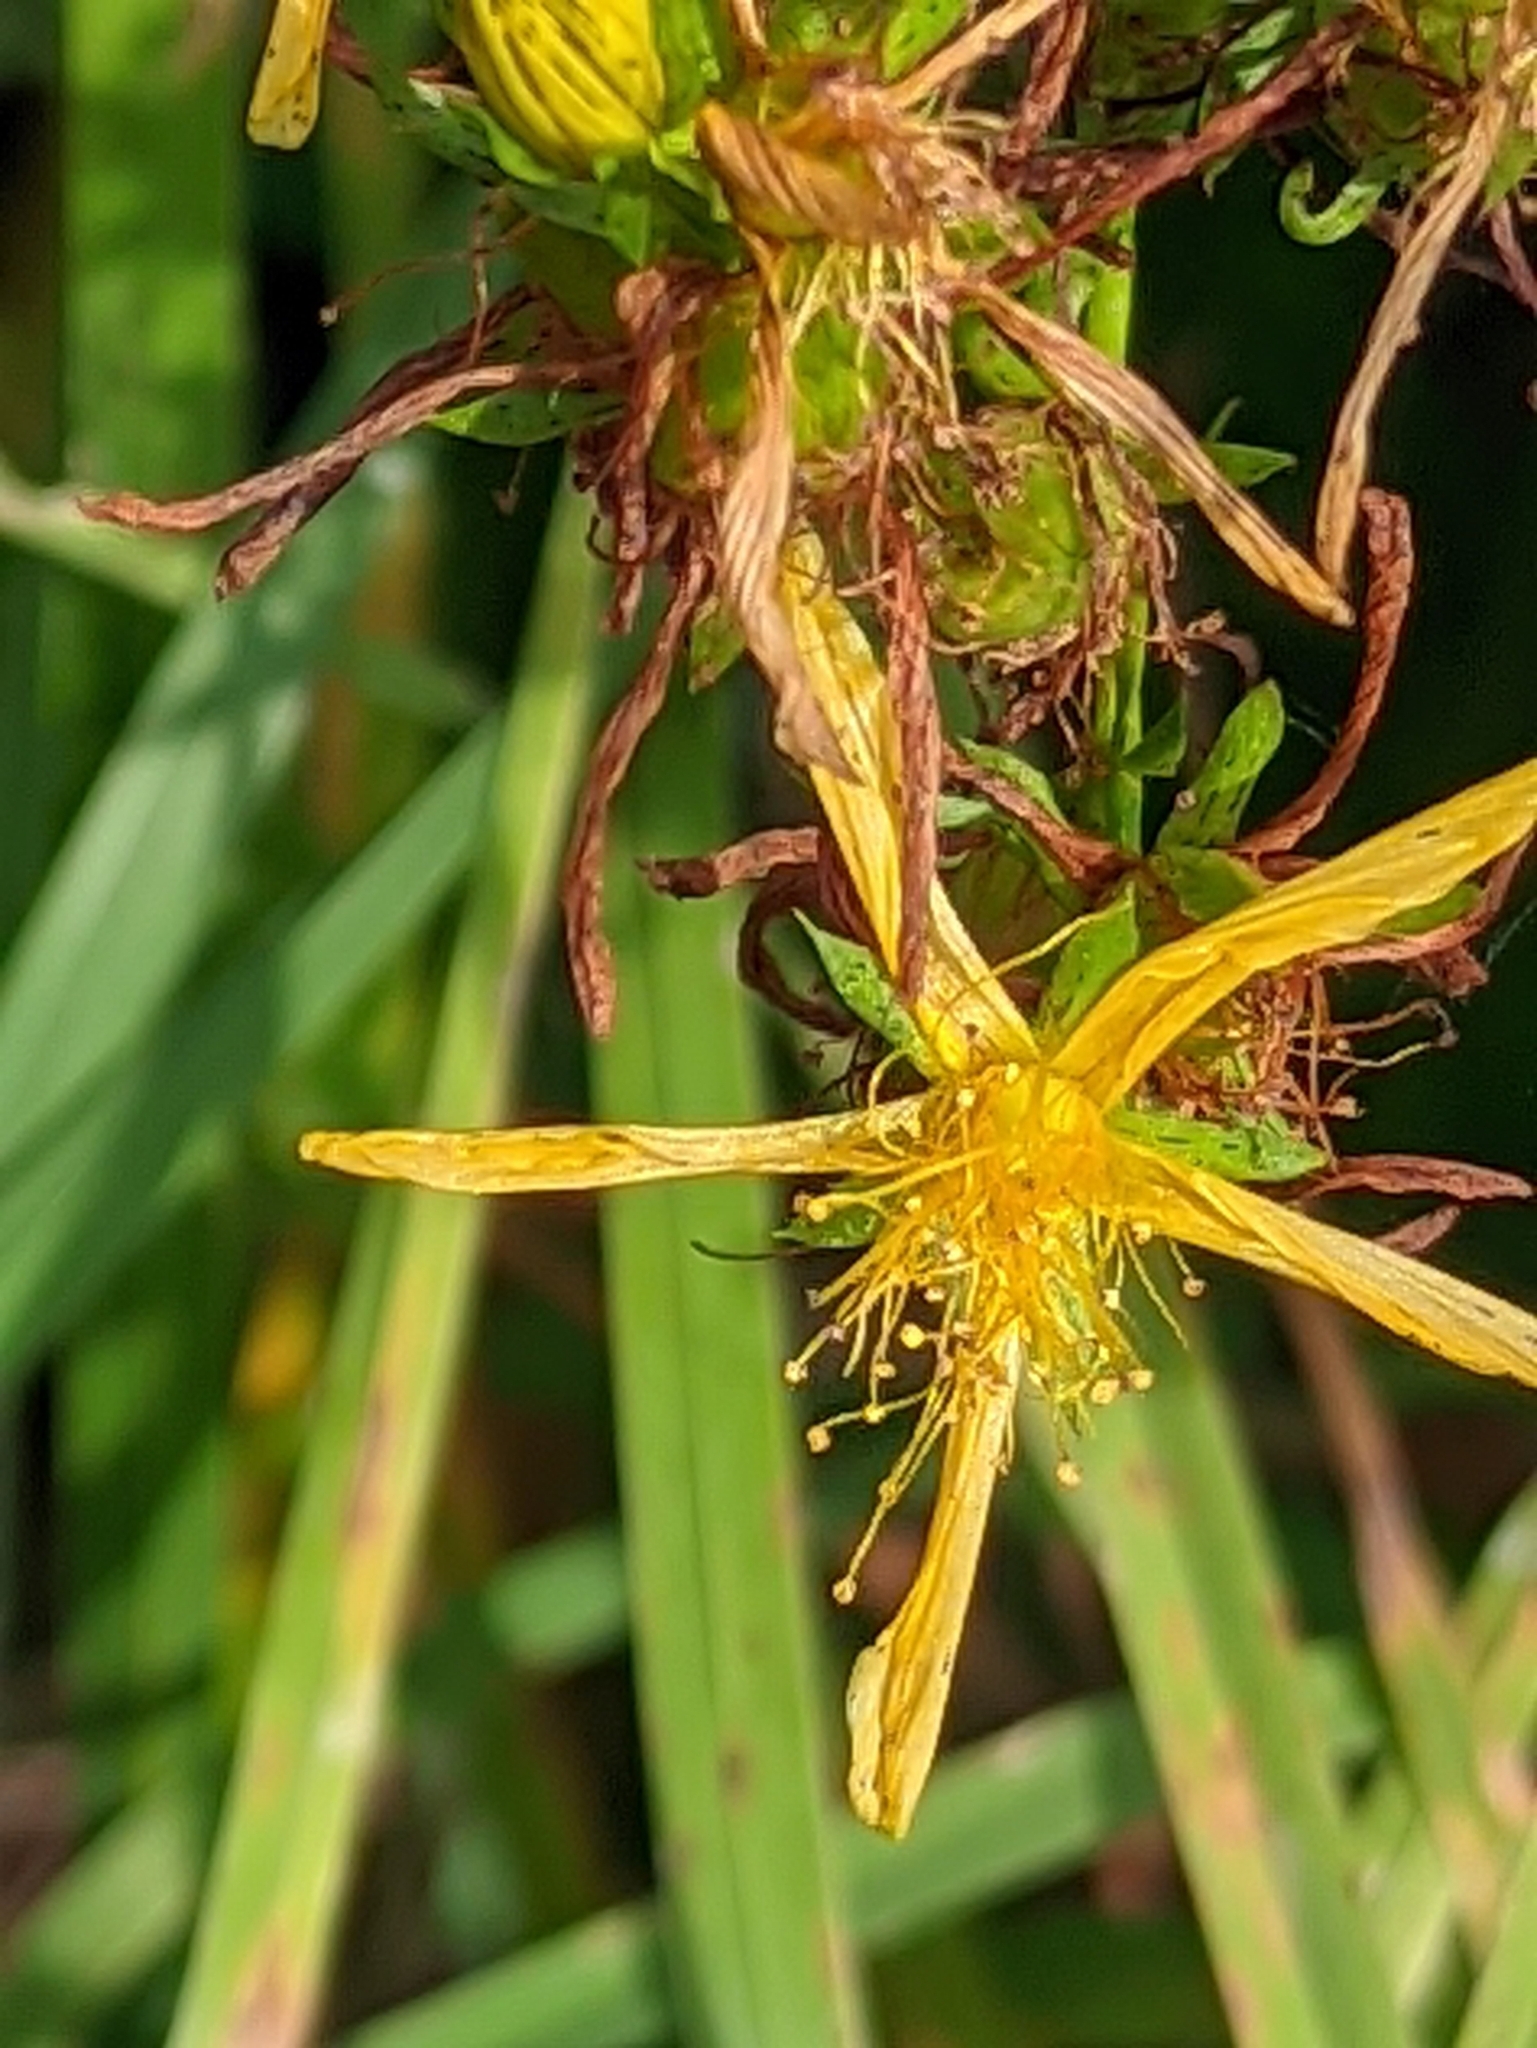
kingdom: Plantae
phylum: Tracheophyta
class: Magnoliopsida
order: Malpighiales
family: Hypericaceae
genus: Hypericum
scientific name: Hypericum perforatum
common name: Common st. johnswort
